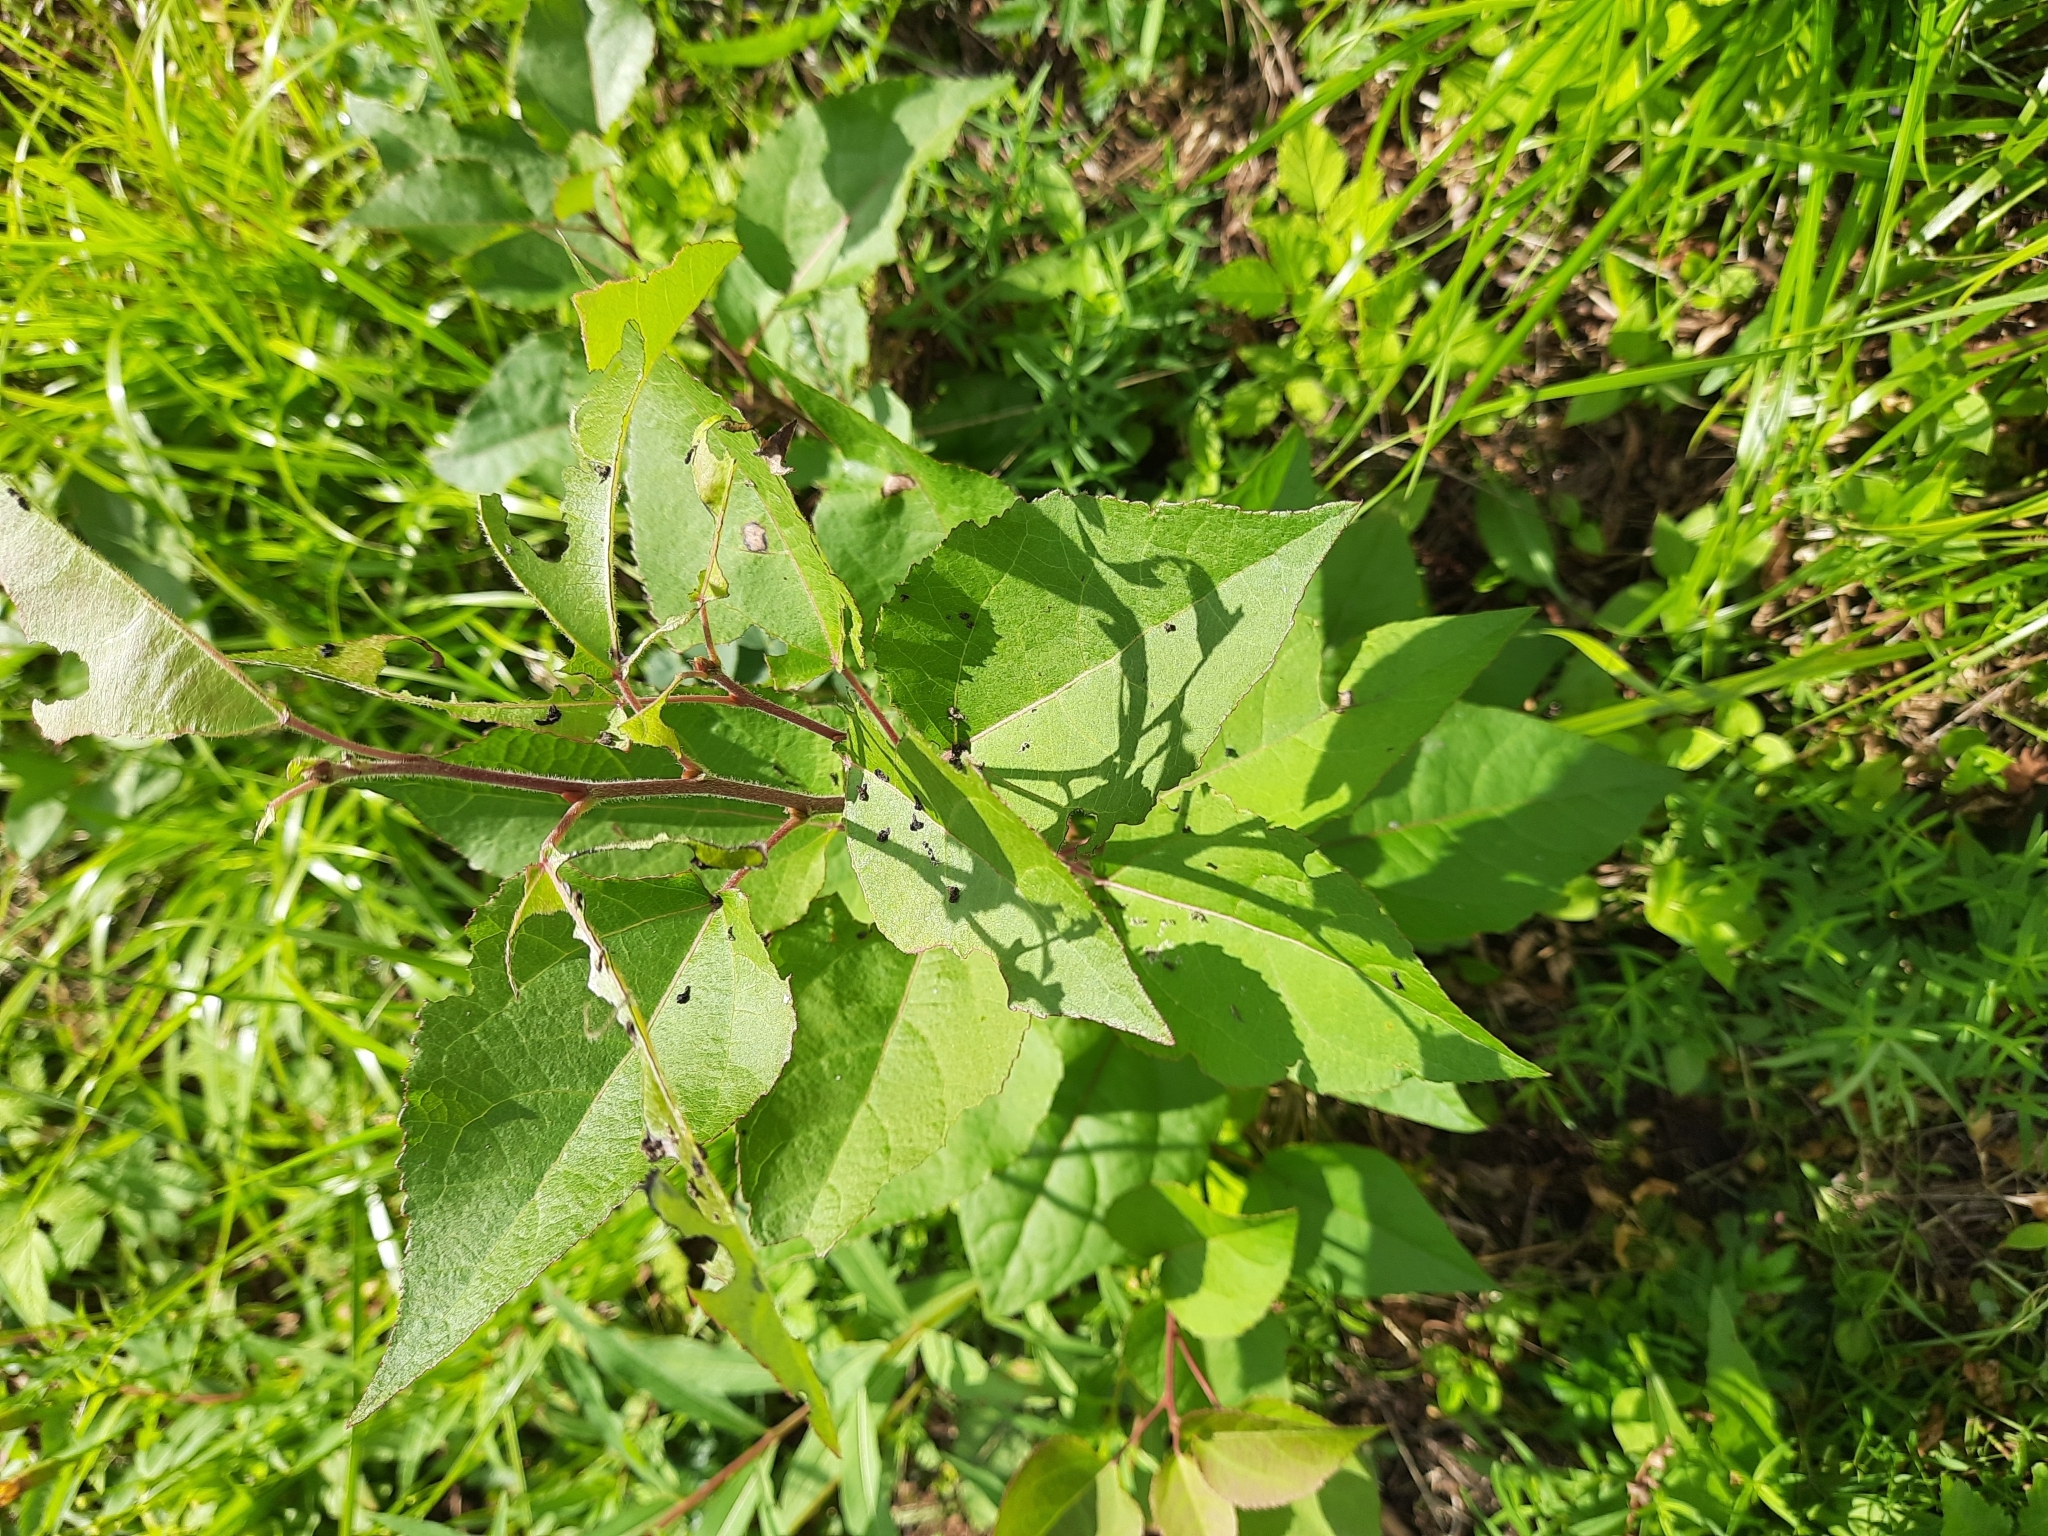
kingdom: Plantae
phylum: Tracheophyta
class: Magnoliopsida
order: Malpighiales
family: Salicaceae
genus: Populus
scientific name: Populus tremula
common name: European aspen
